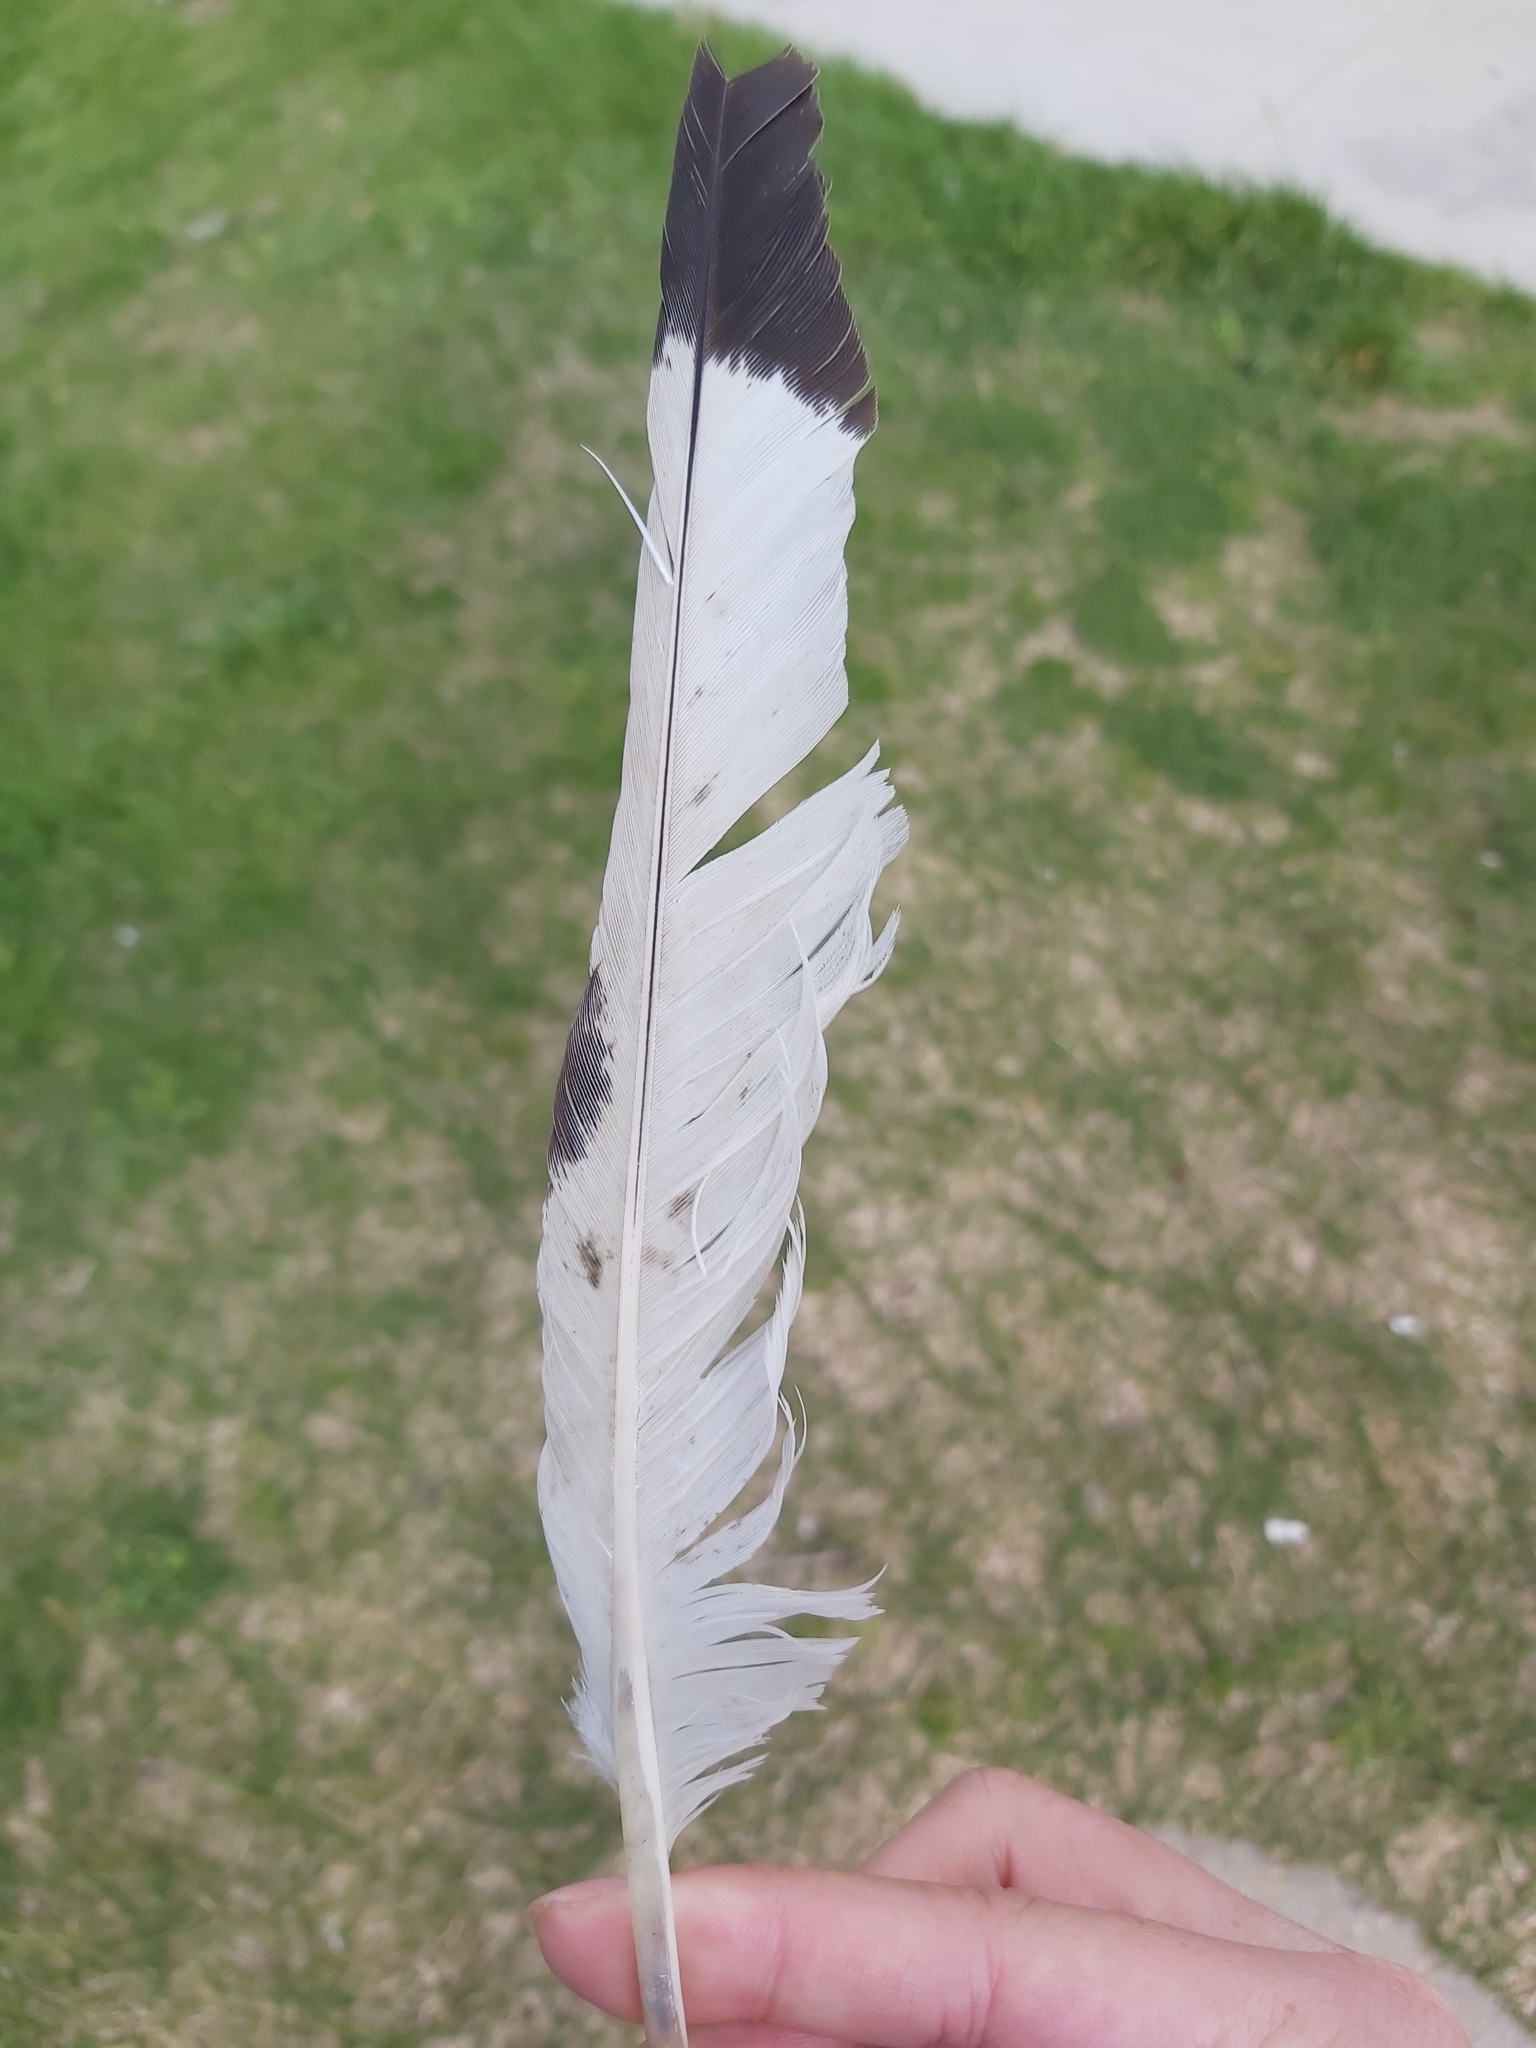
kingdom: Animalia
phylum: Chordata
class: Aves
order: Pelecaniformes
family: Threskiornithidae
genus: Threskiornis
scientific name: Threskiornis molucca
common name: Australian white ibis
